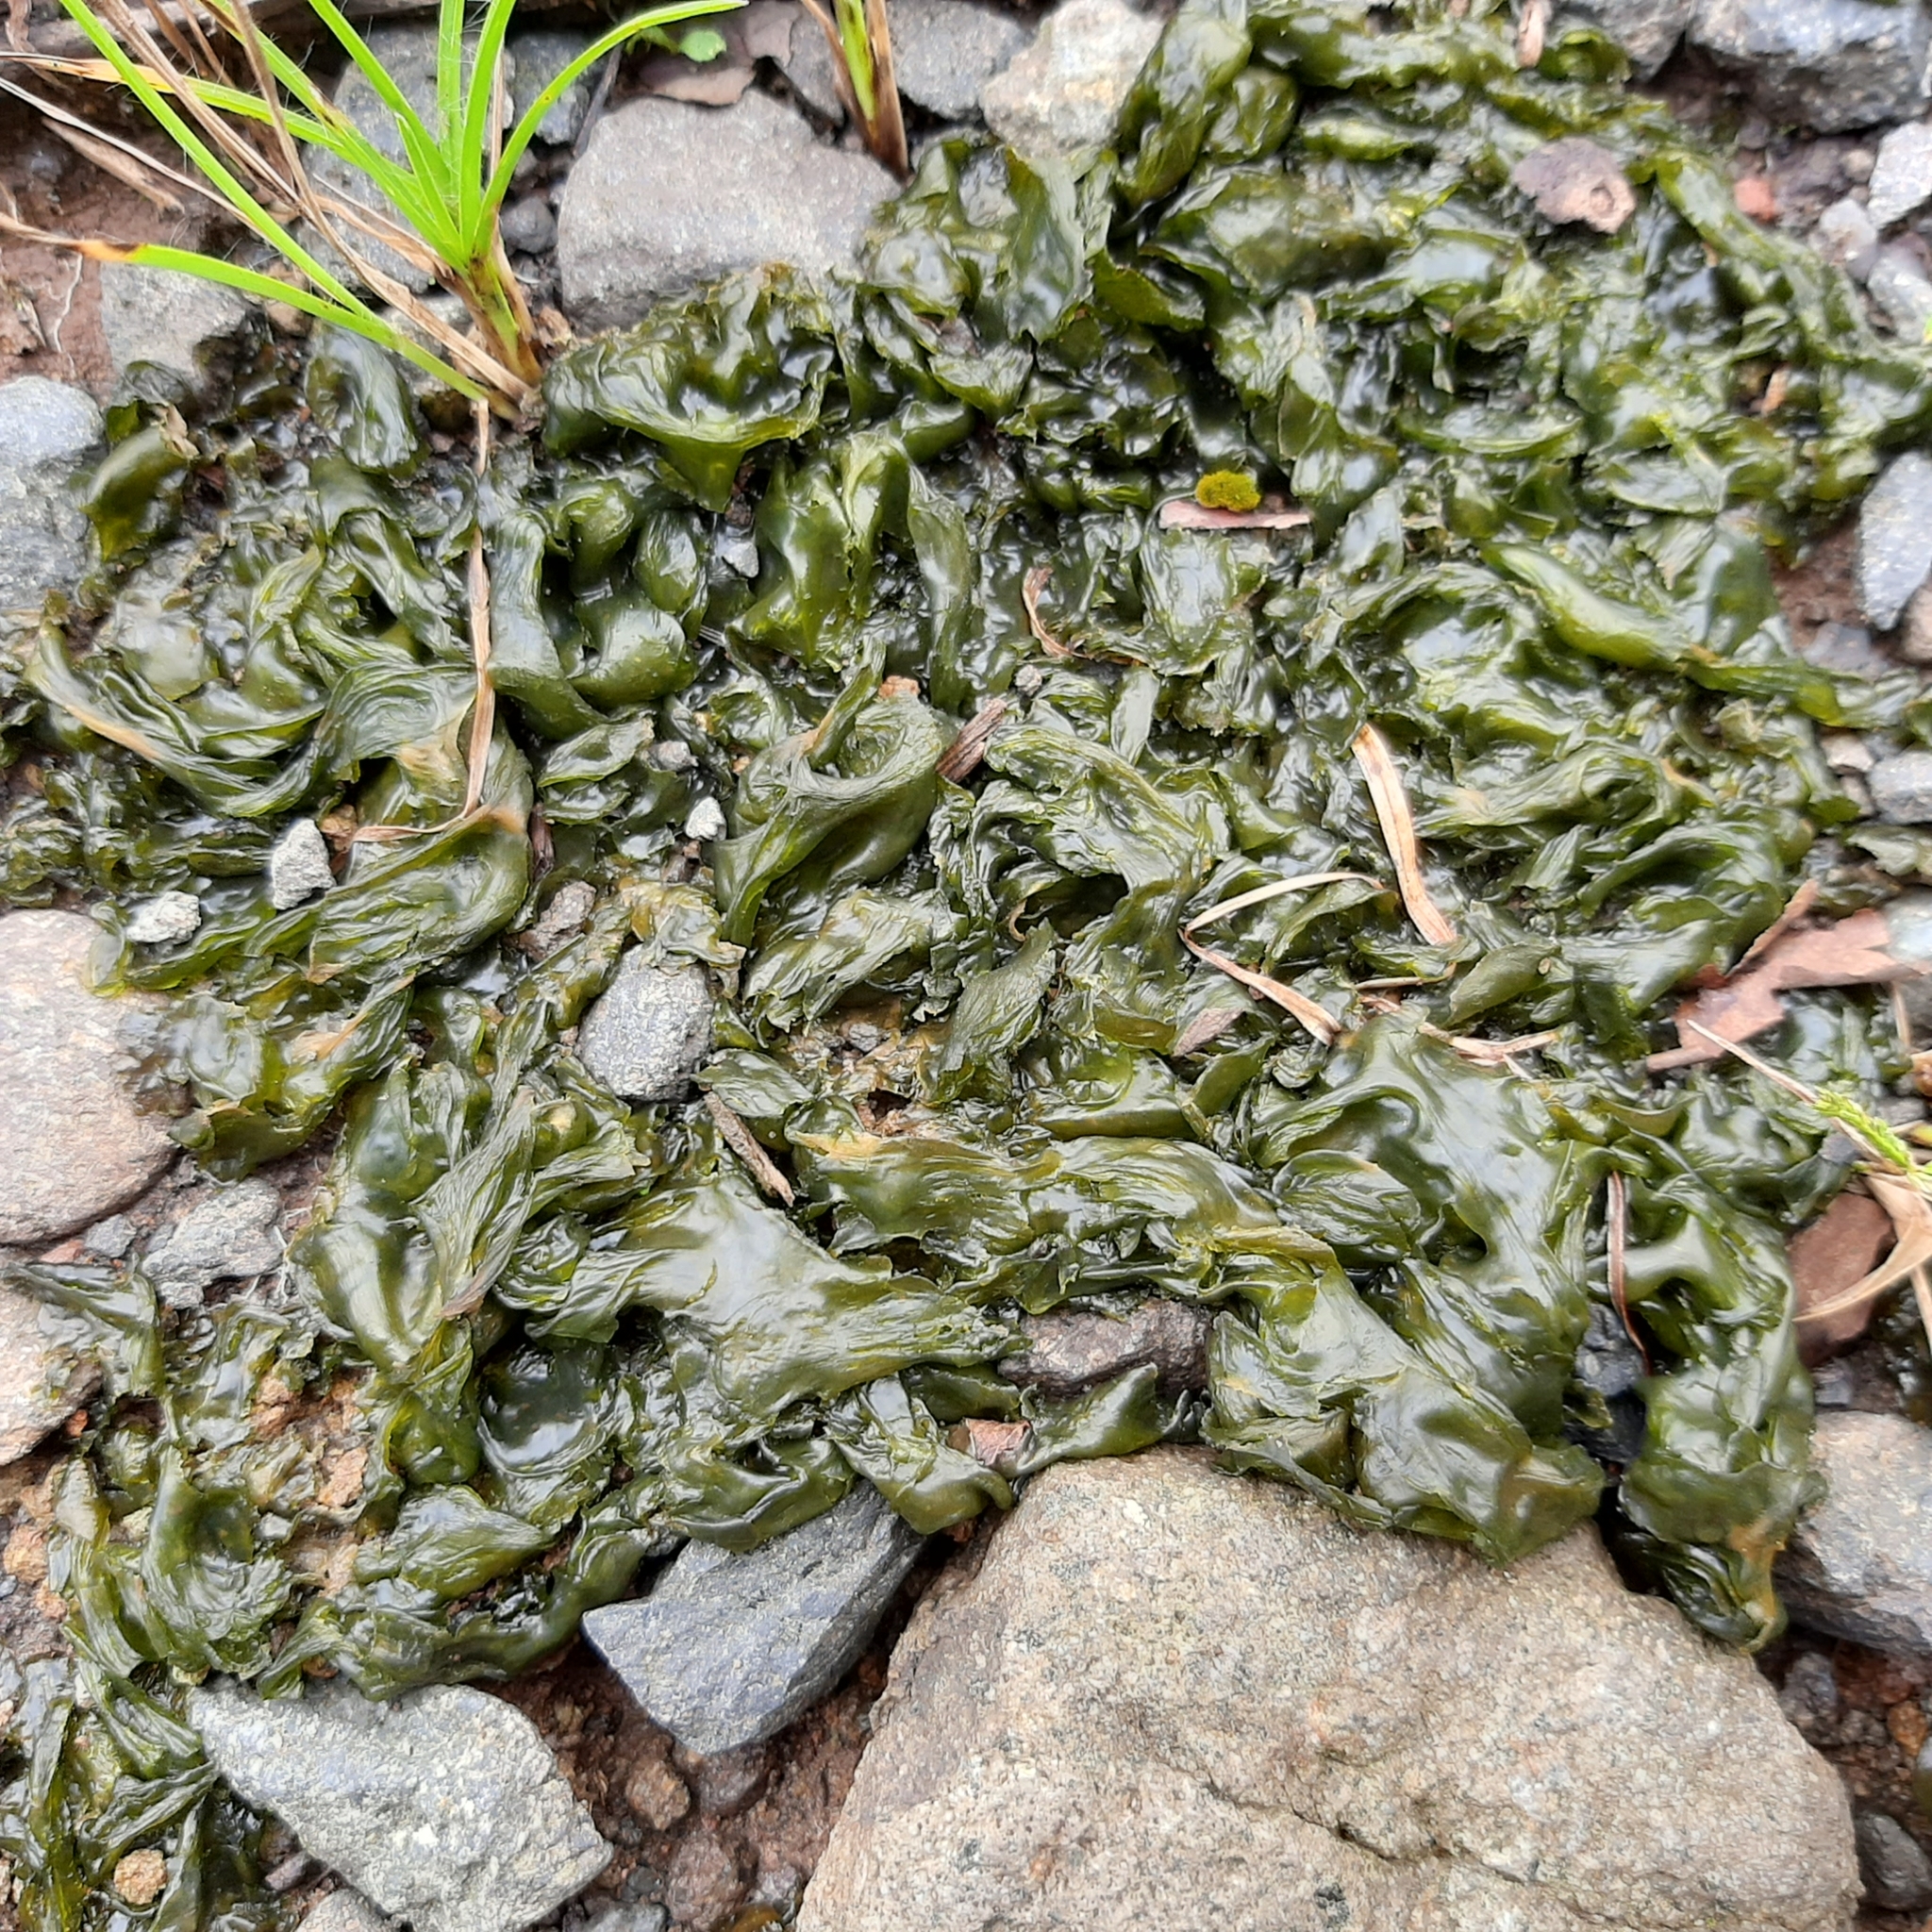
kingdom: Bacteria
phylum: Cyanobacteria
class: Cyanobacteriia
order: Cyanobacteriales
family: Nostocaceae
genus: Nostoc
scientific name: Nostoc commune
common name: Star jelly
